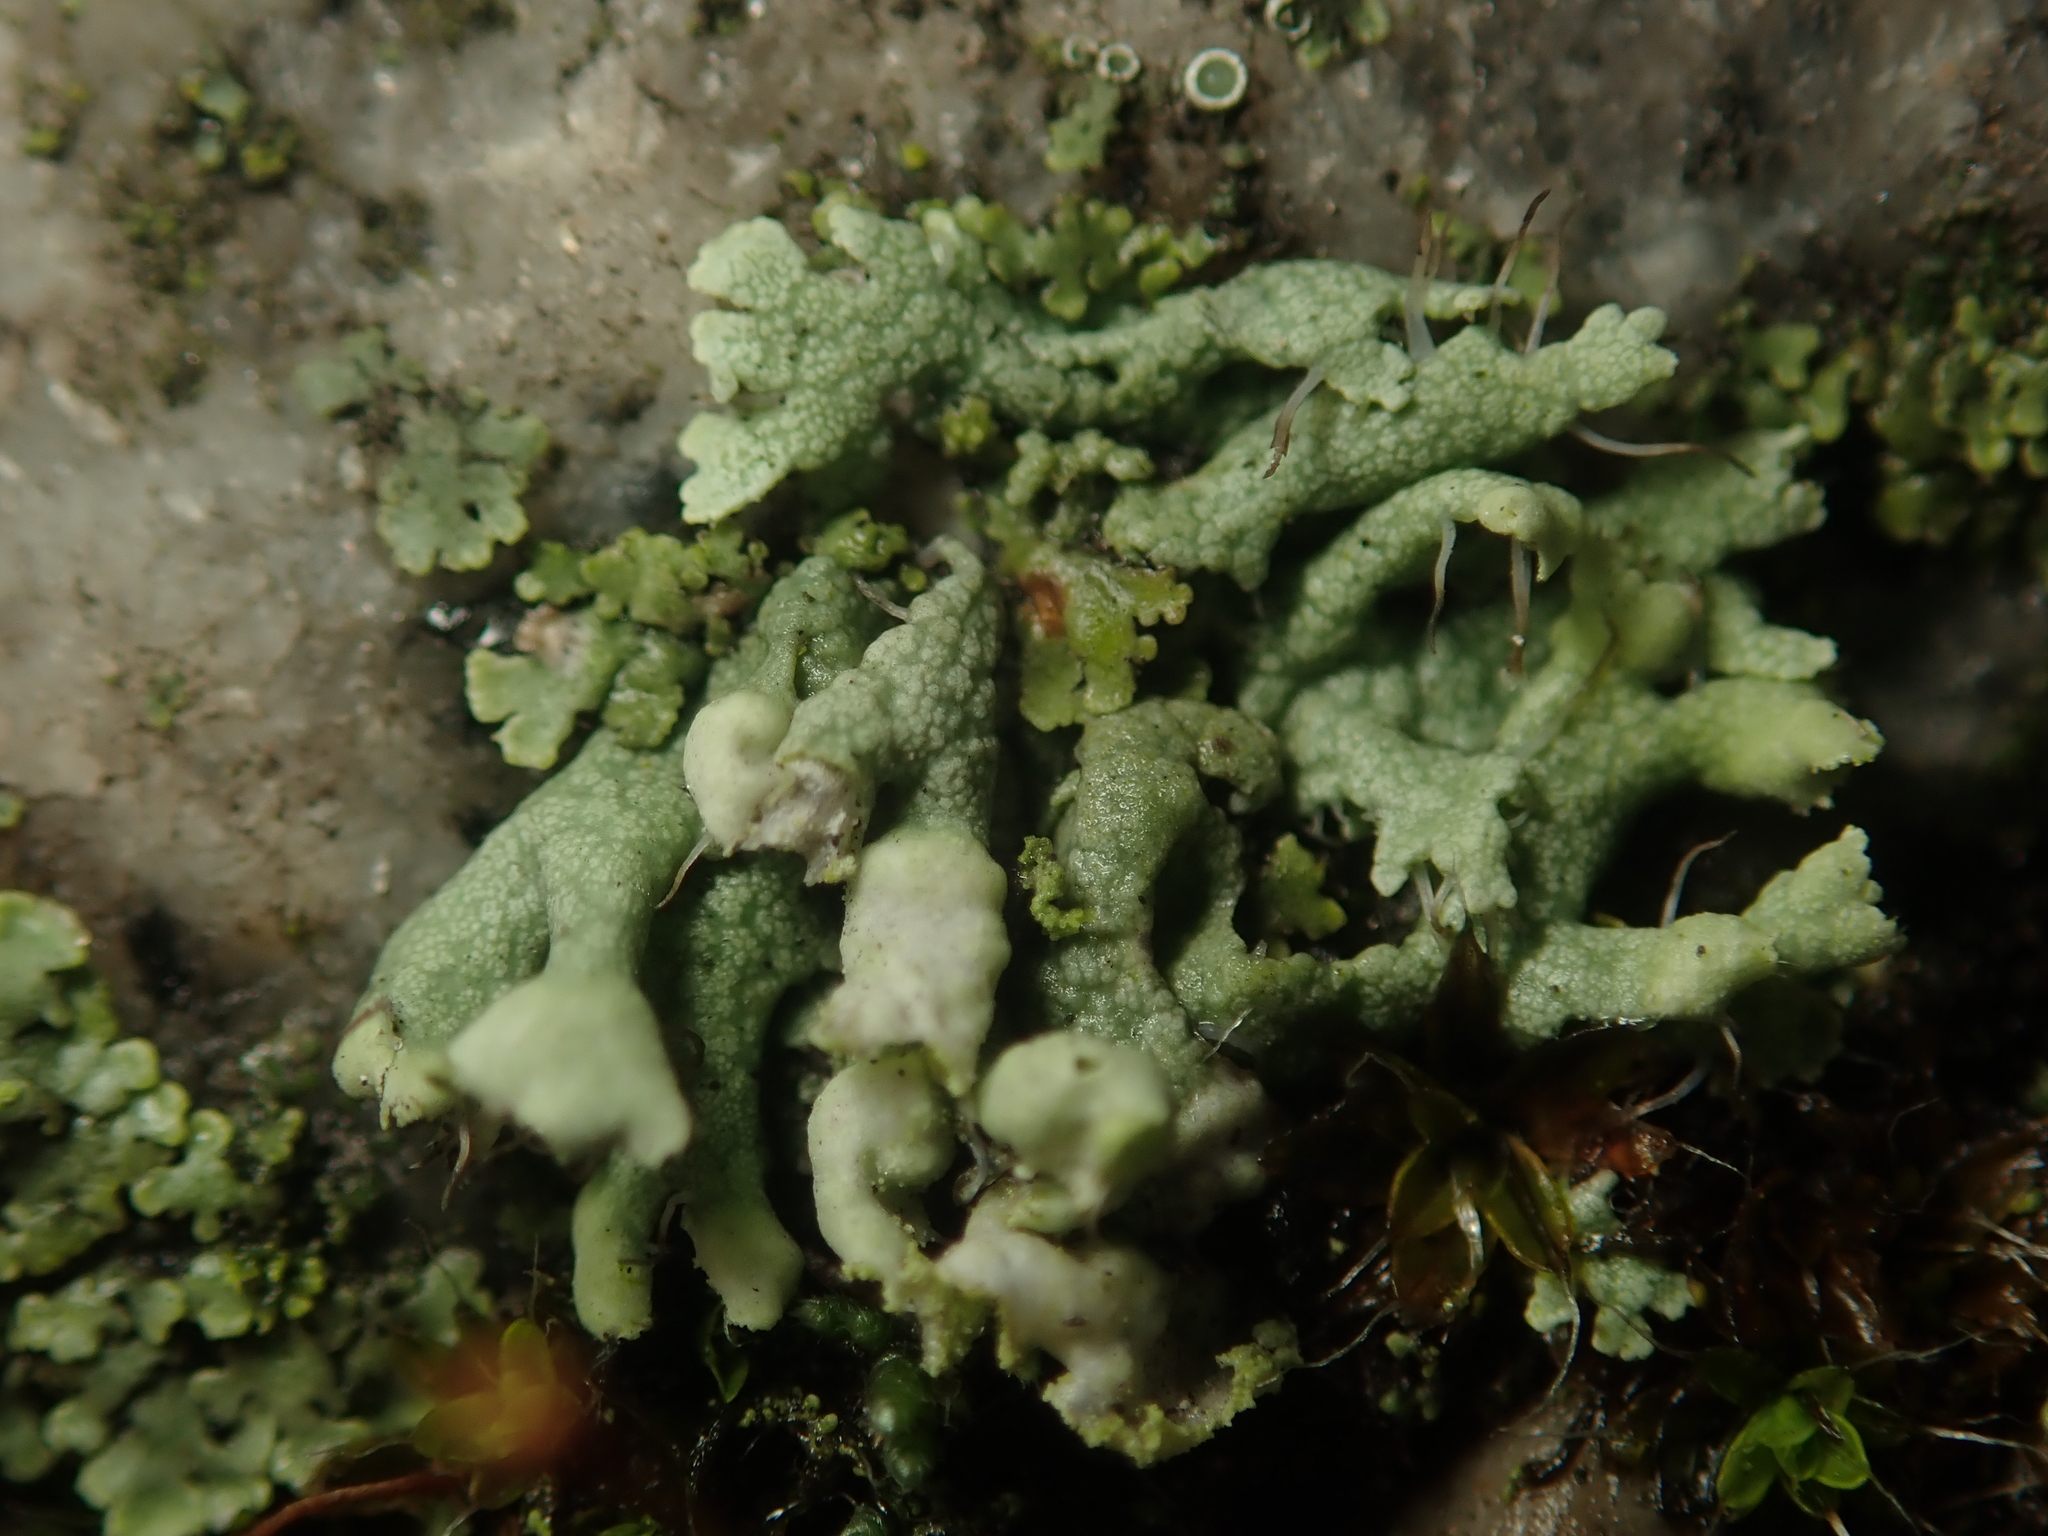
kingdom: Fungi
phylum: Ascomycota
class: Lecanoromycetes
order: Caliciales
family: Physciaceae
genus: Physcia
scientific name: Physcia adscendens
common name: Hooded rosette lichen
